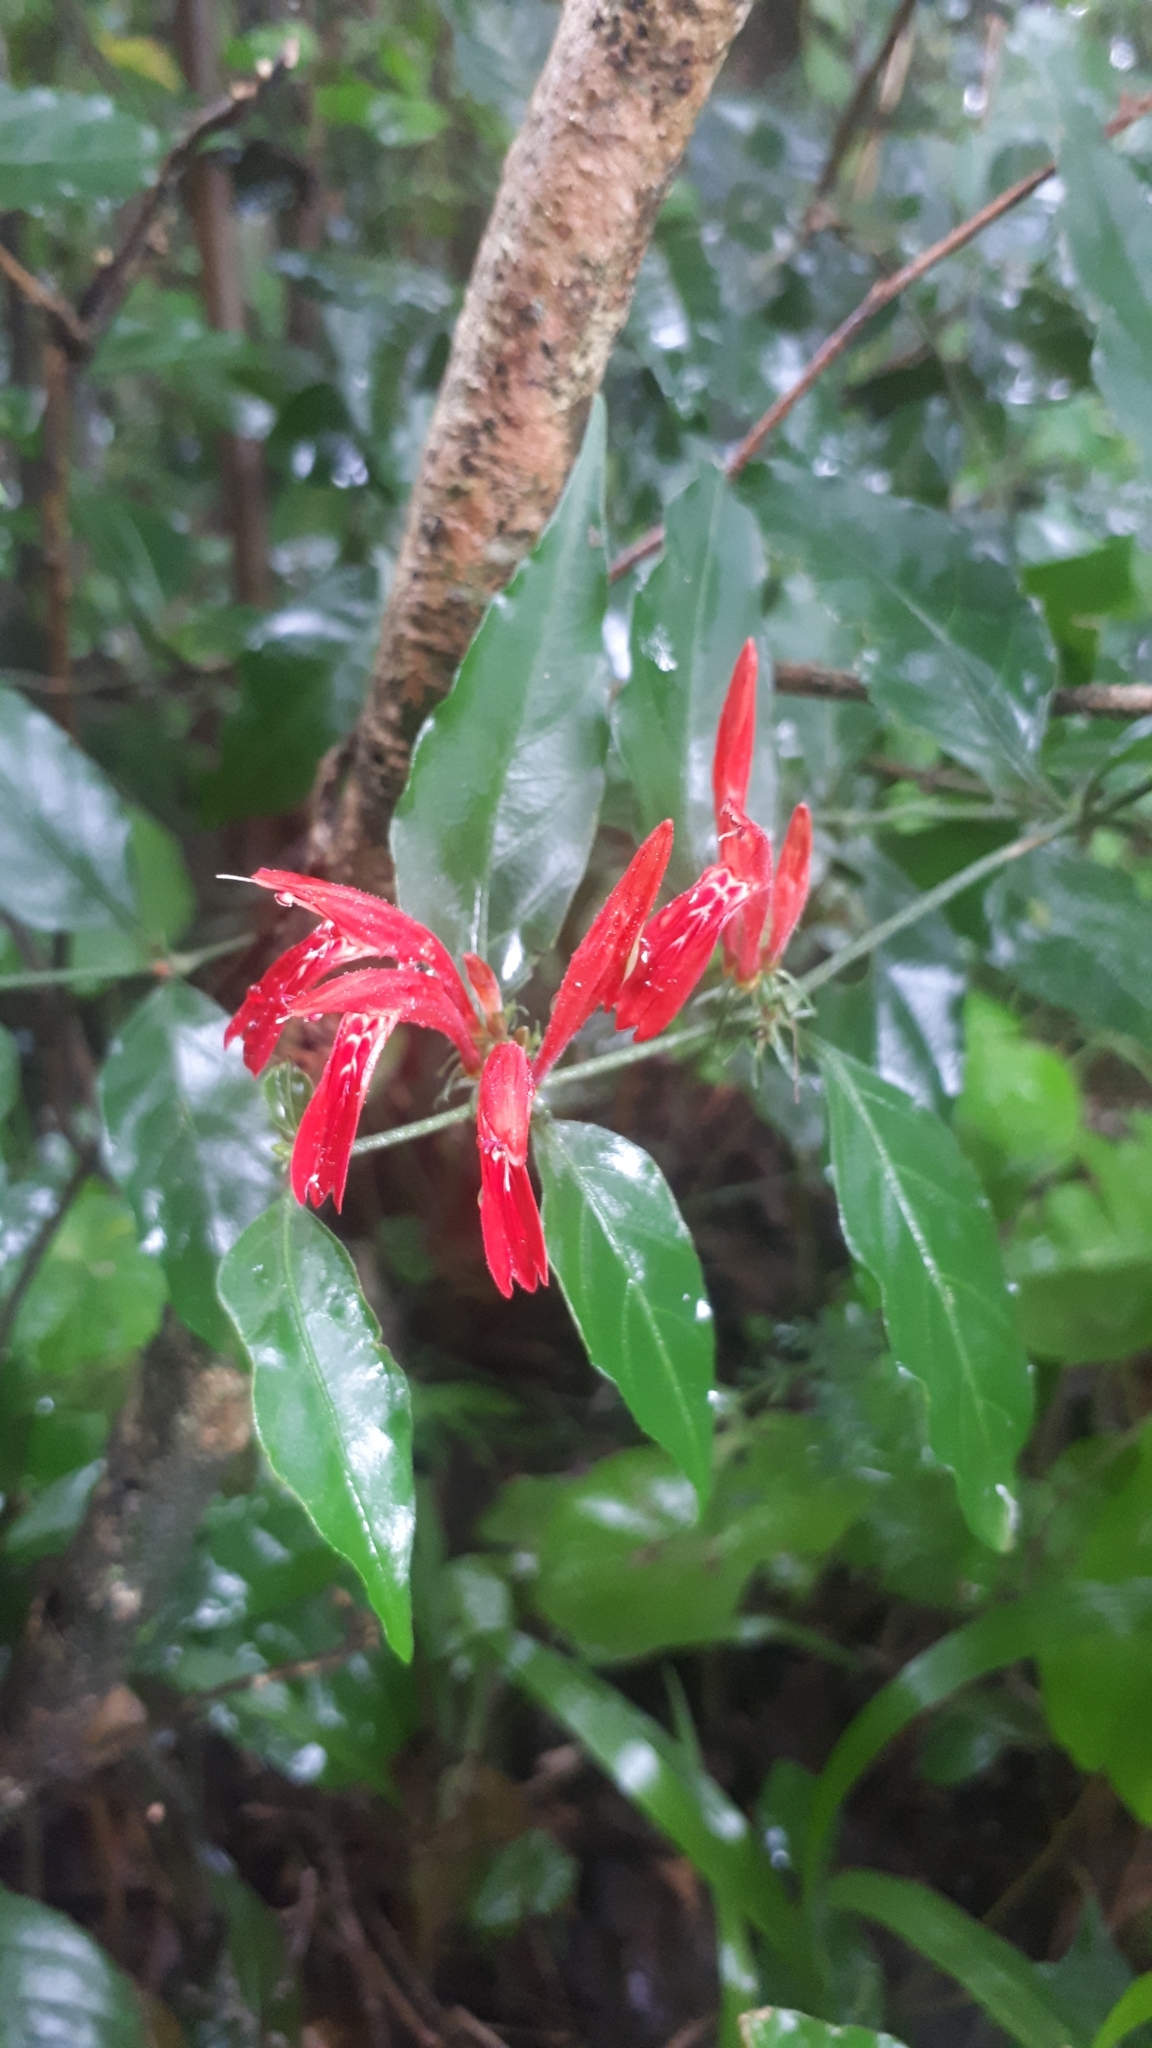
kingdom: Plantae
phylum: Tracheophyta
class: Magnoliopsida
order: Lamiales
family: Acanthaceae
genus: Justicia
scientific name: Justicia brasiliana
